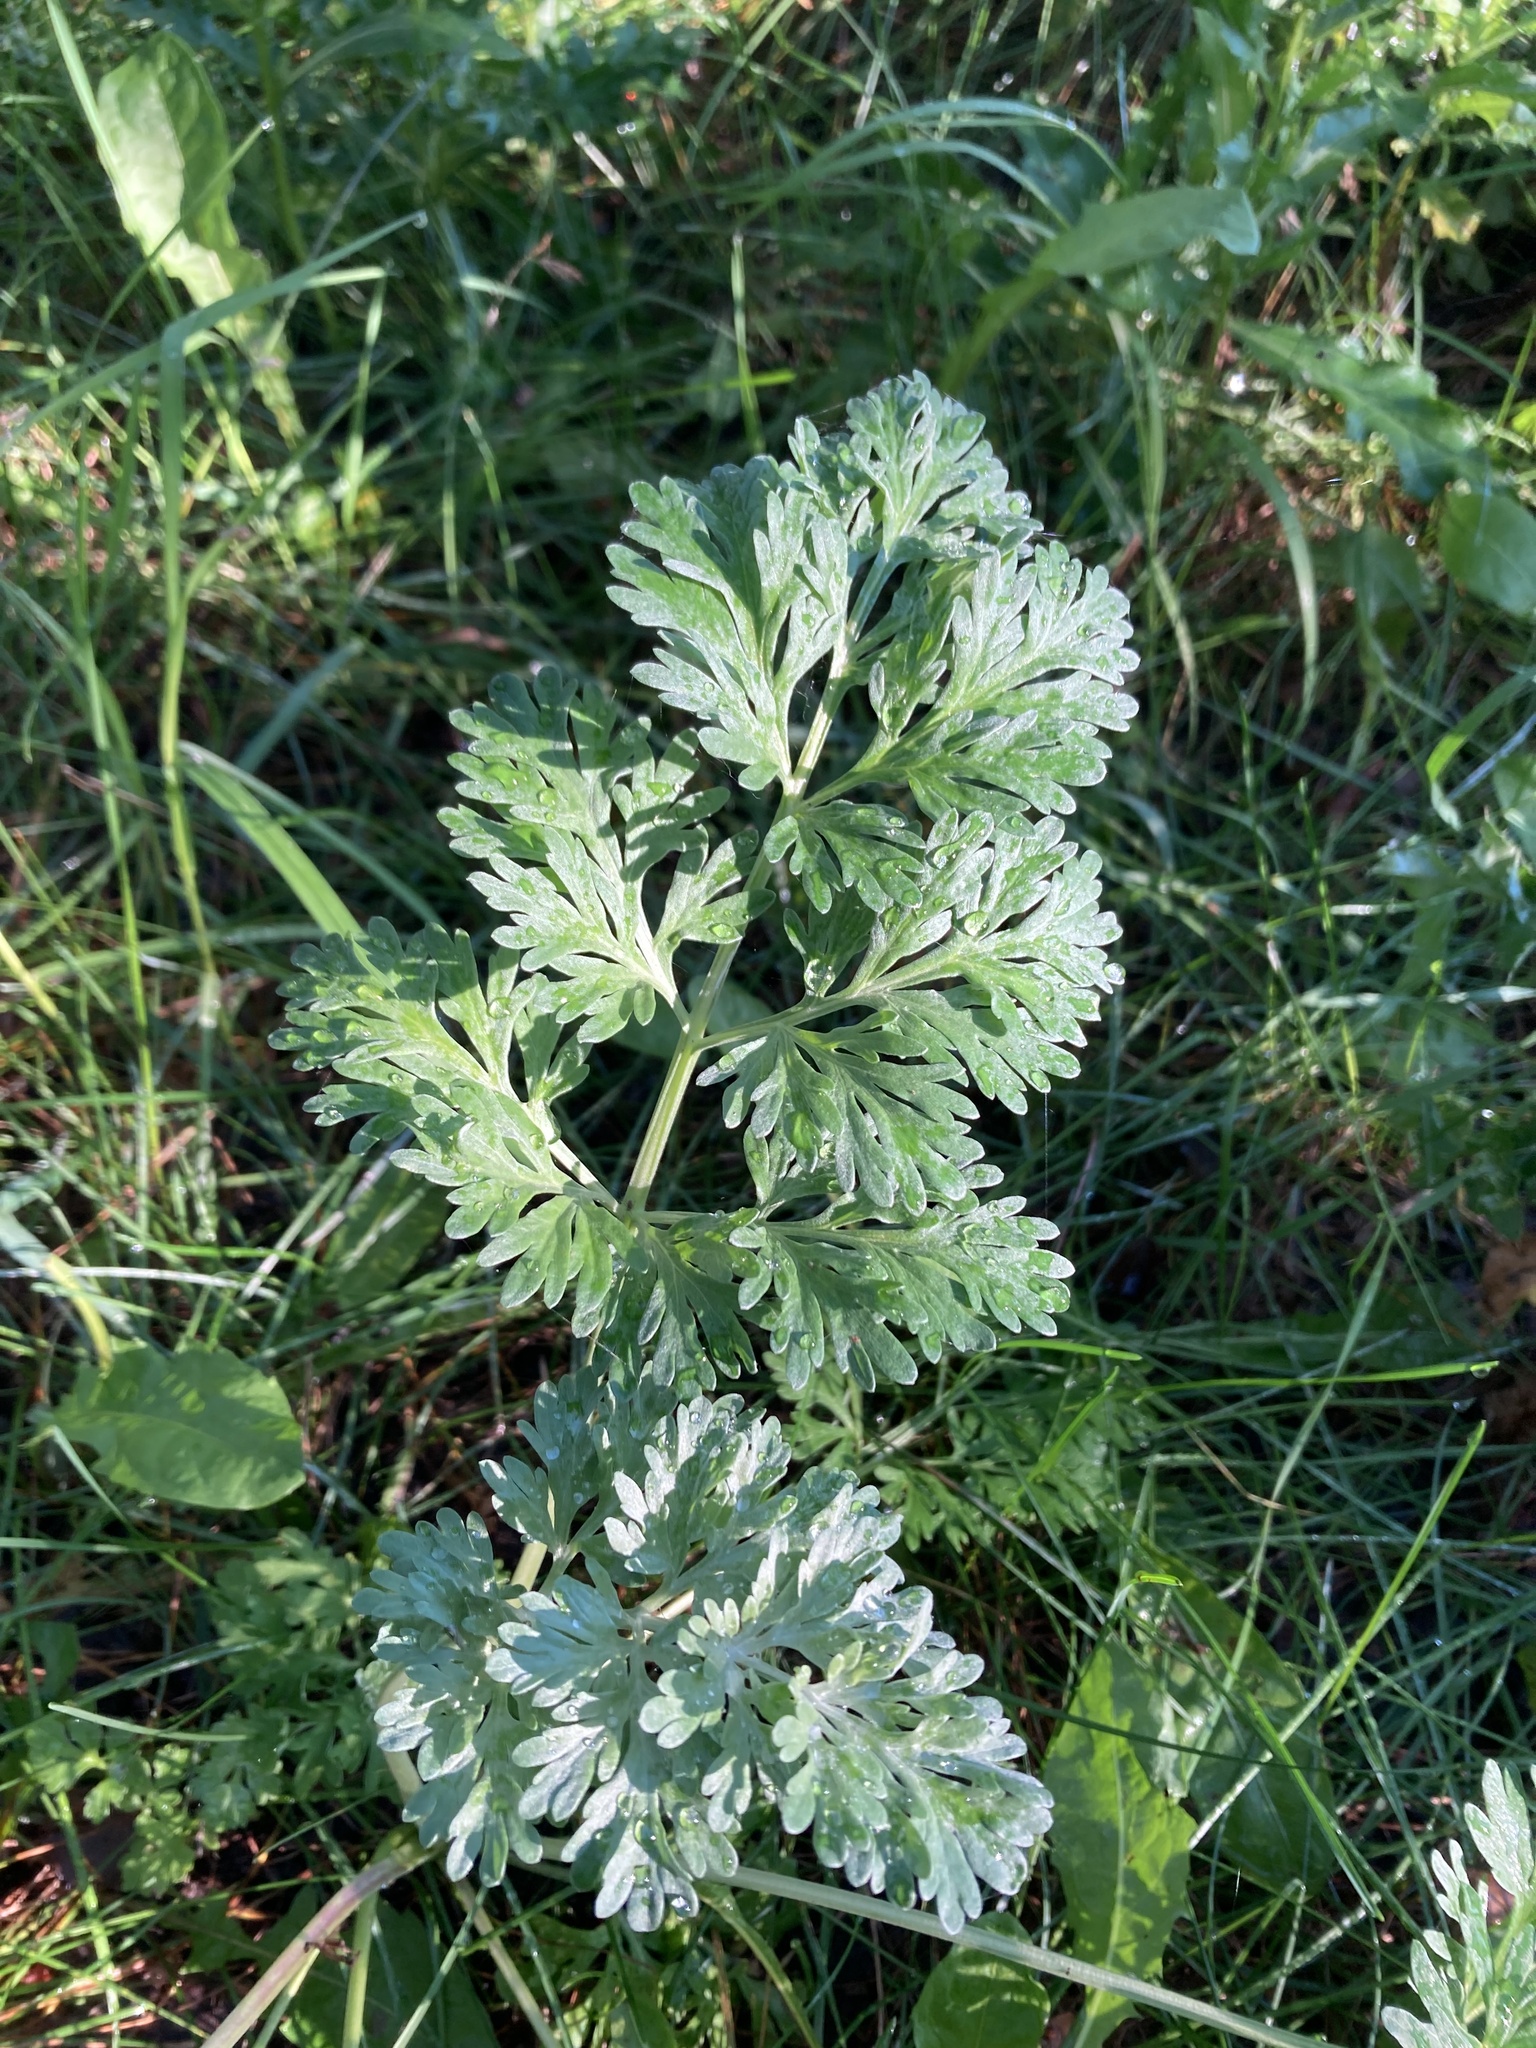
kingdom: Plantae
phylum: Tracheophyta
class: Magnoliopsida
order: Asterales
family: Asteraceae
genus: Artemisia
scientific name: Artemisia absinthium
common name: Wormwood
